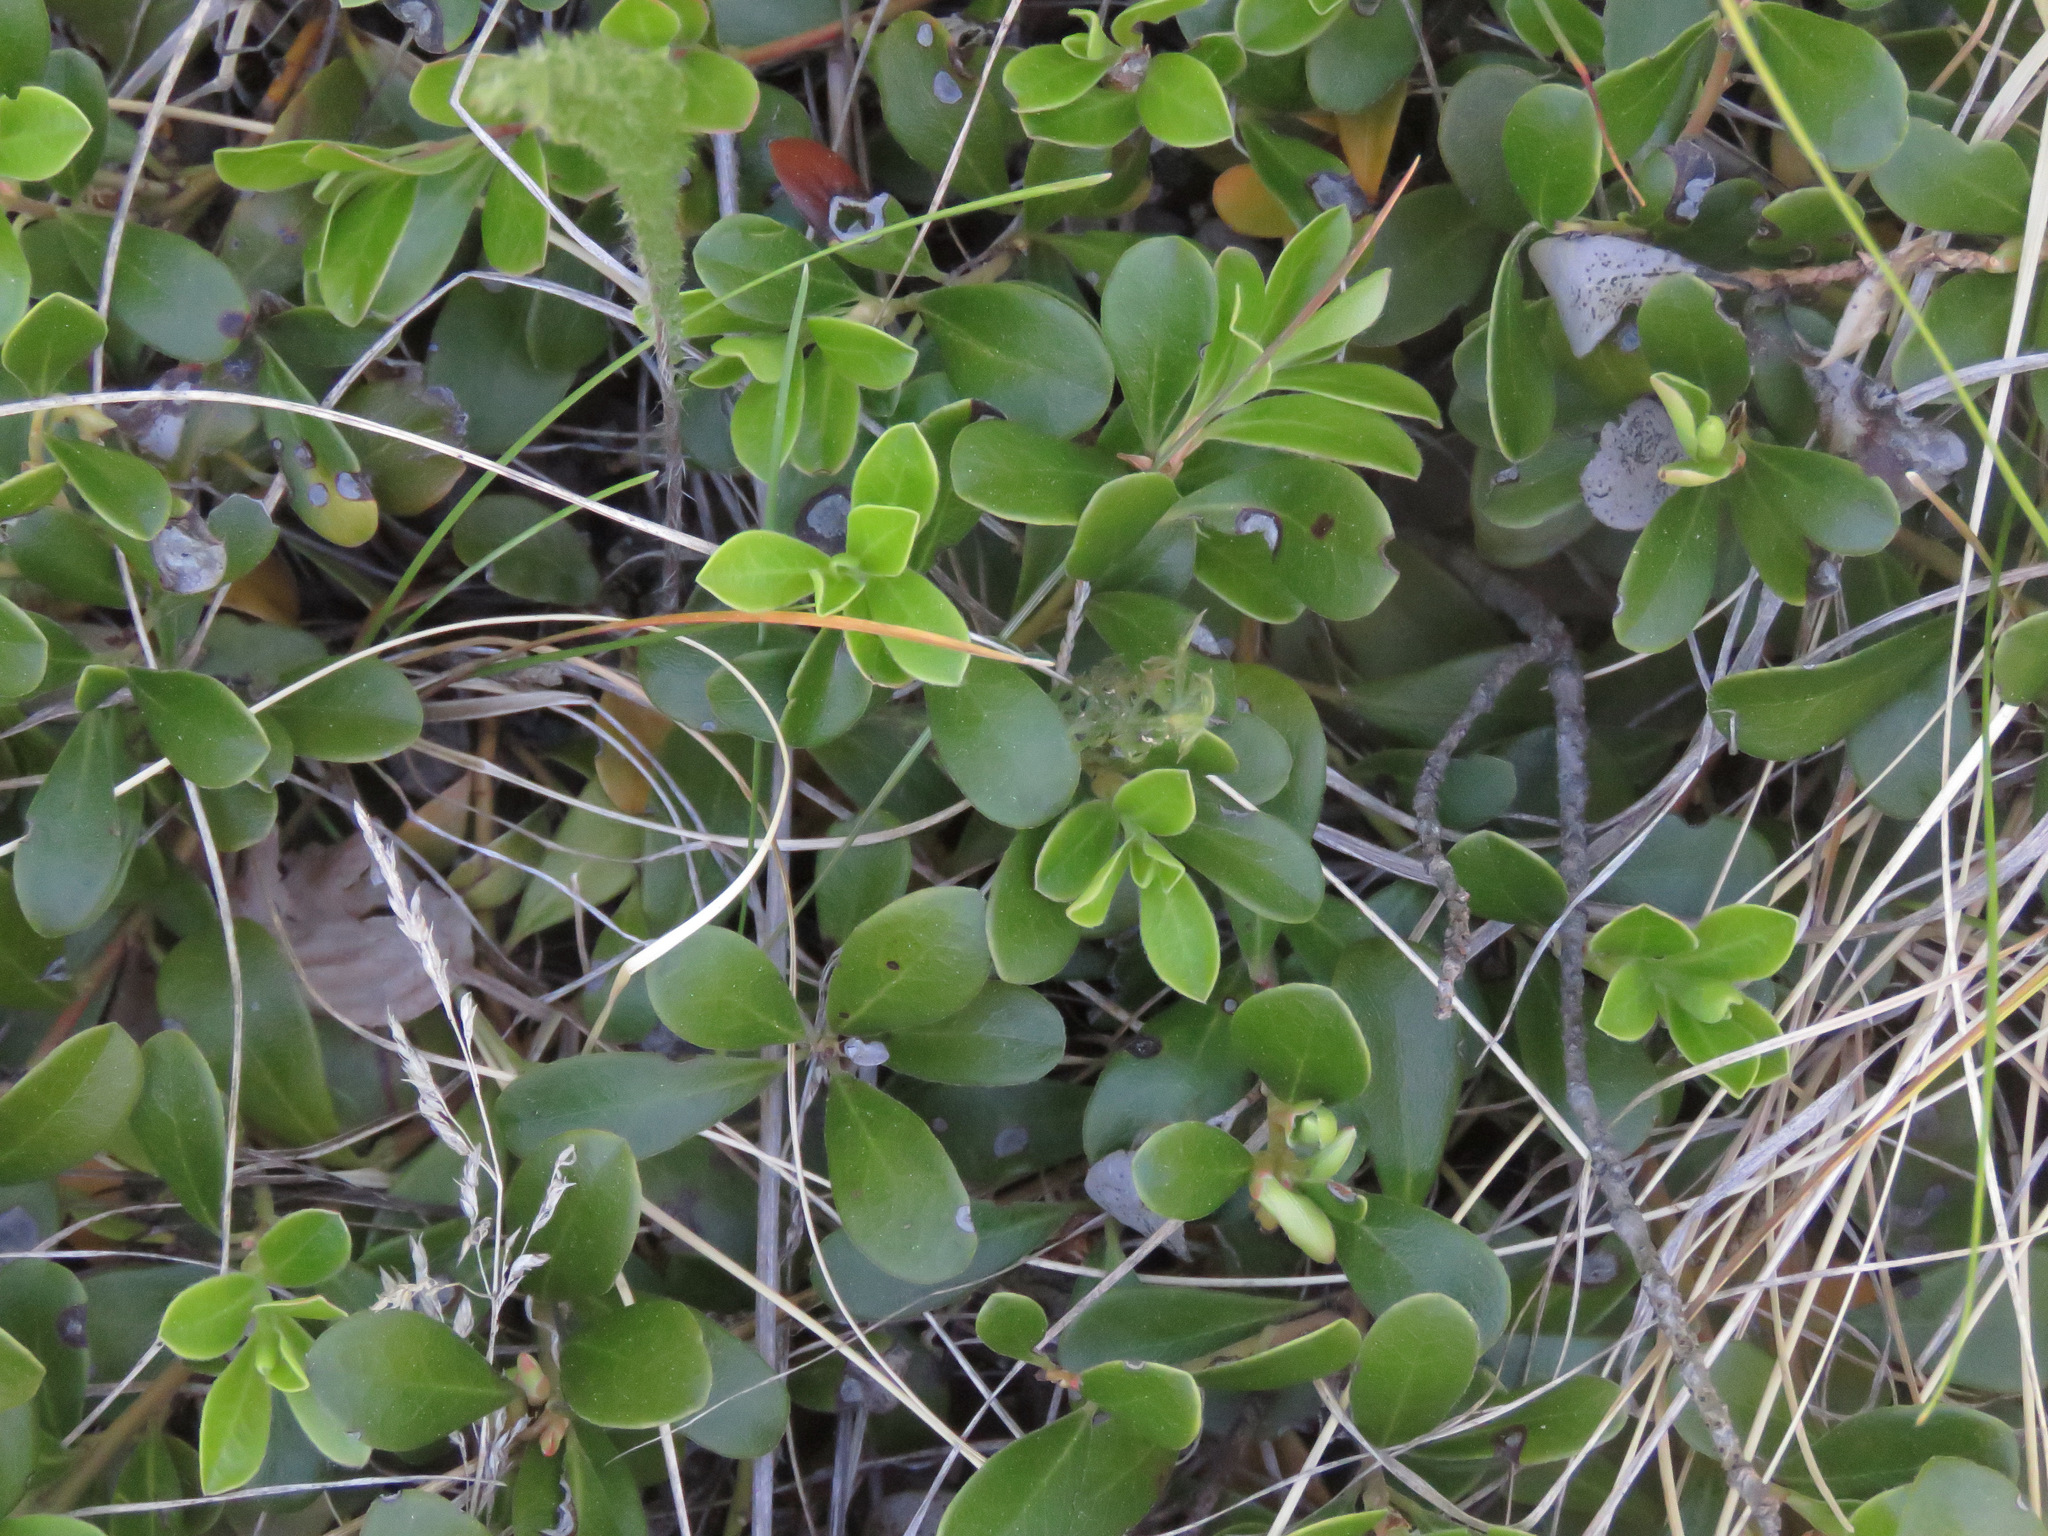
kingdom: Plantae
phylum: Tracheophyta
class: Magnoliopsida
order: Ericales
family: Ericaceae
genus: Arctostaphylos
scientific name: Arctostaphylos uva-ursi
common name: Bearberry
